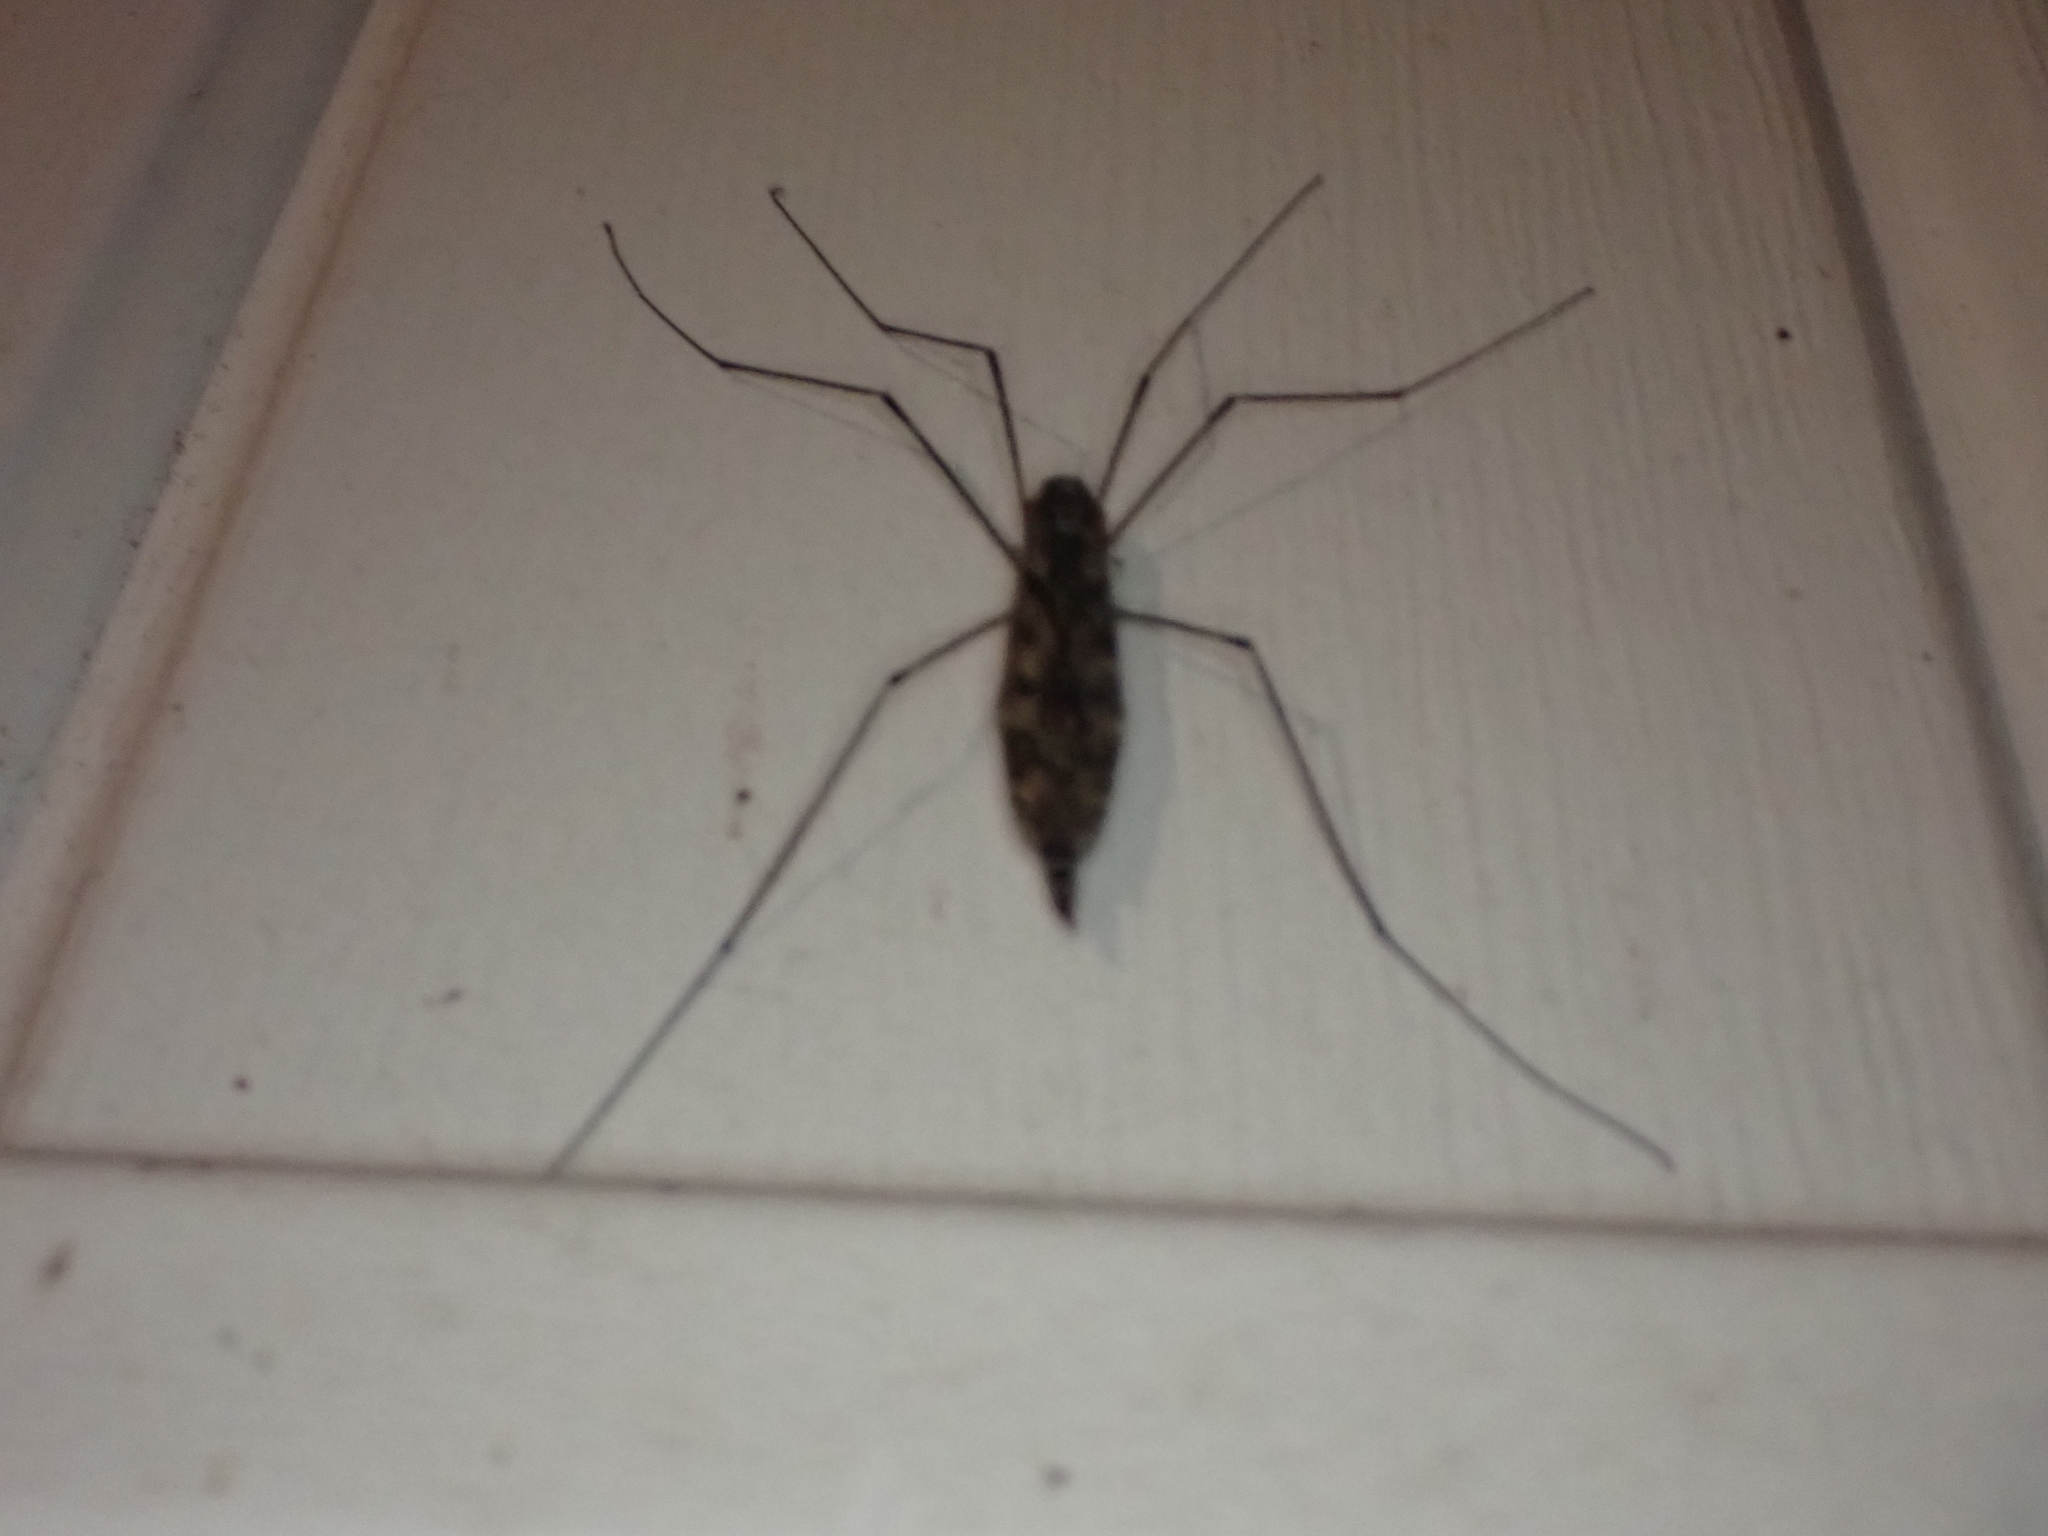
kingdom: Animalia
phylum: Arthropoda
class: Insecta
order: Diptera
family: Tipulidae
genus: Tipula
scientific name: Tipula abdominalis
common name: Giant crane fly
